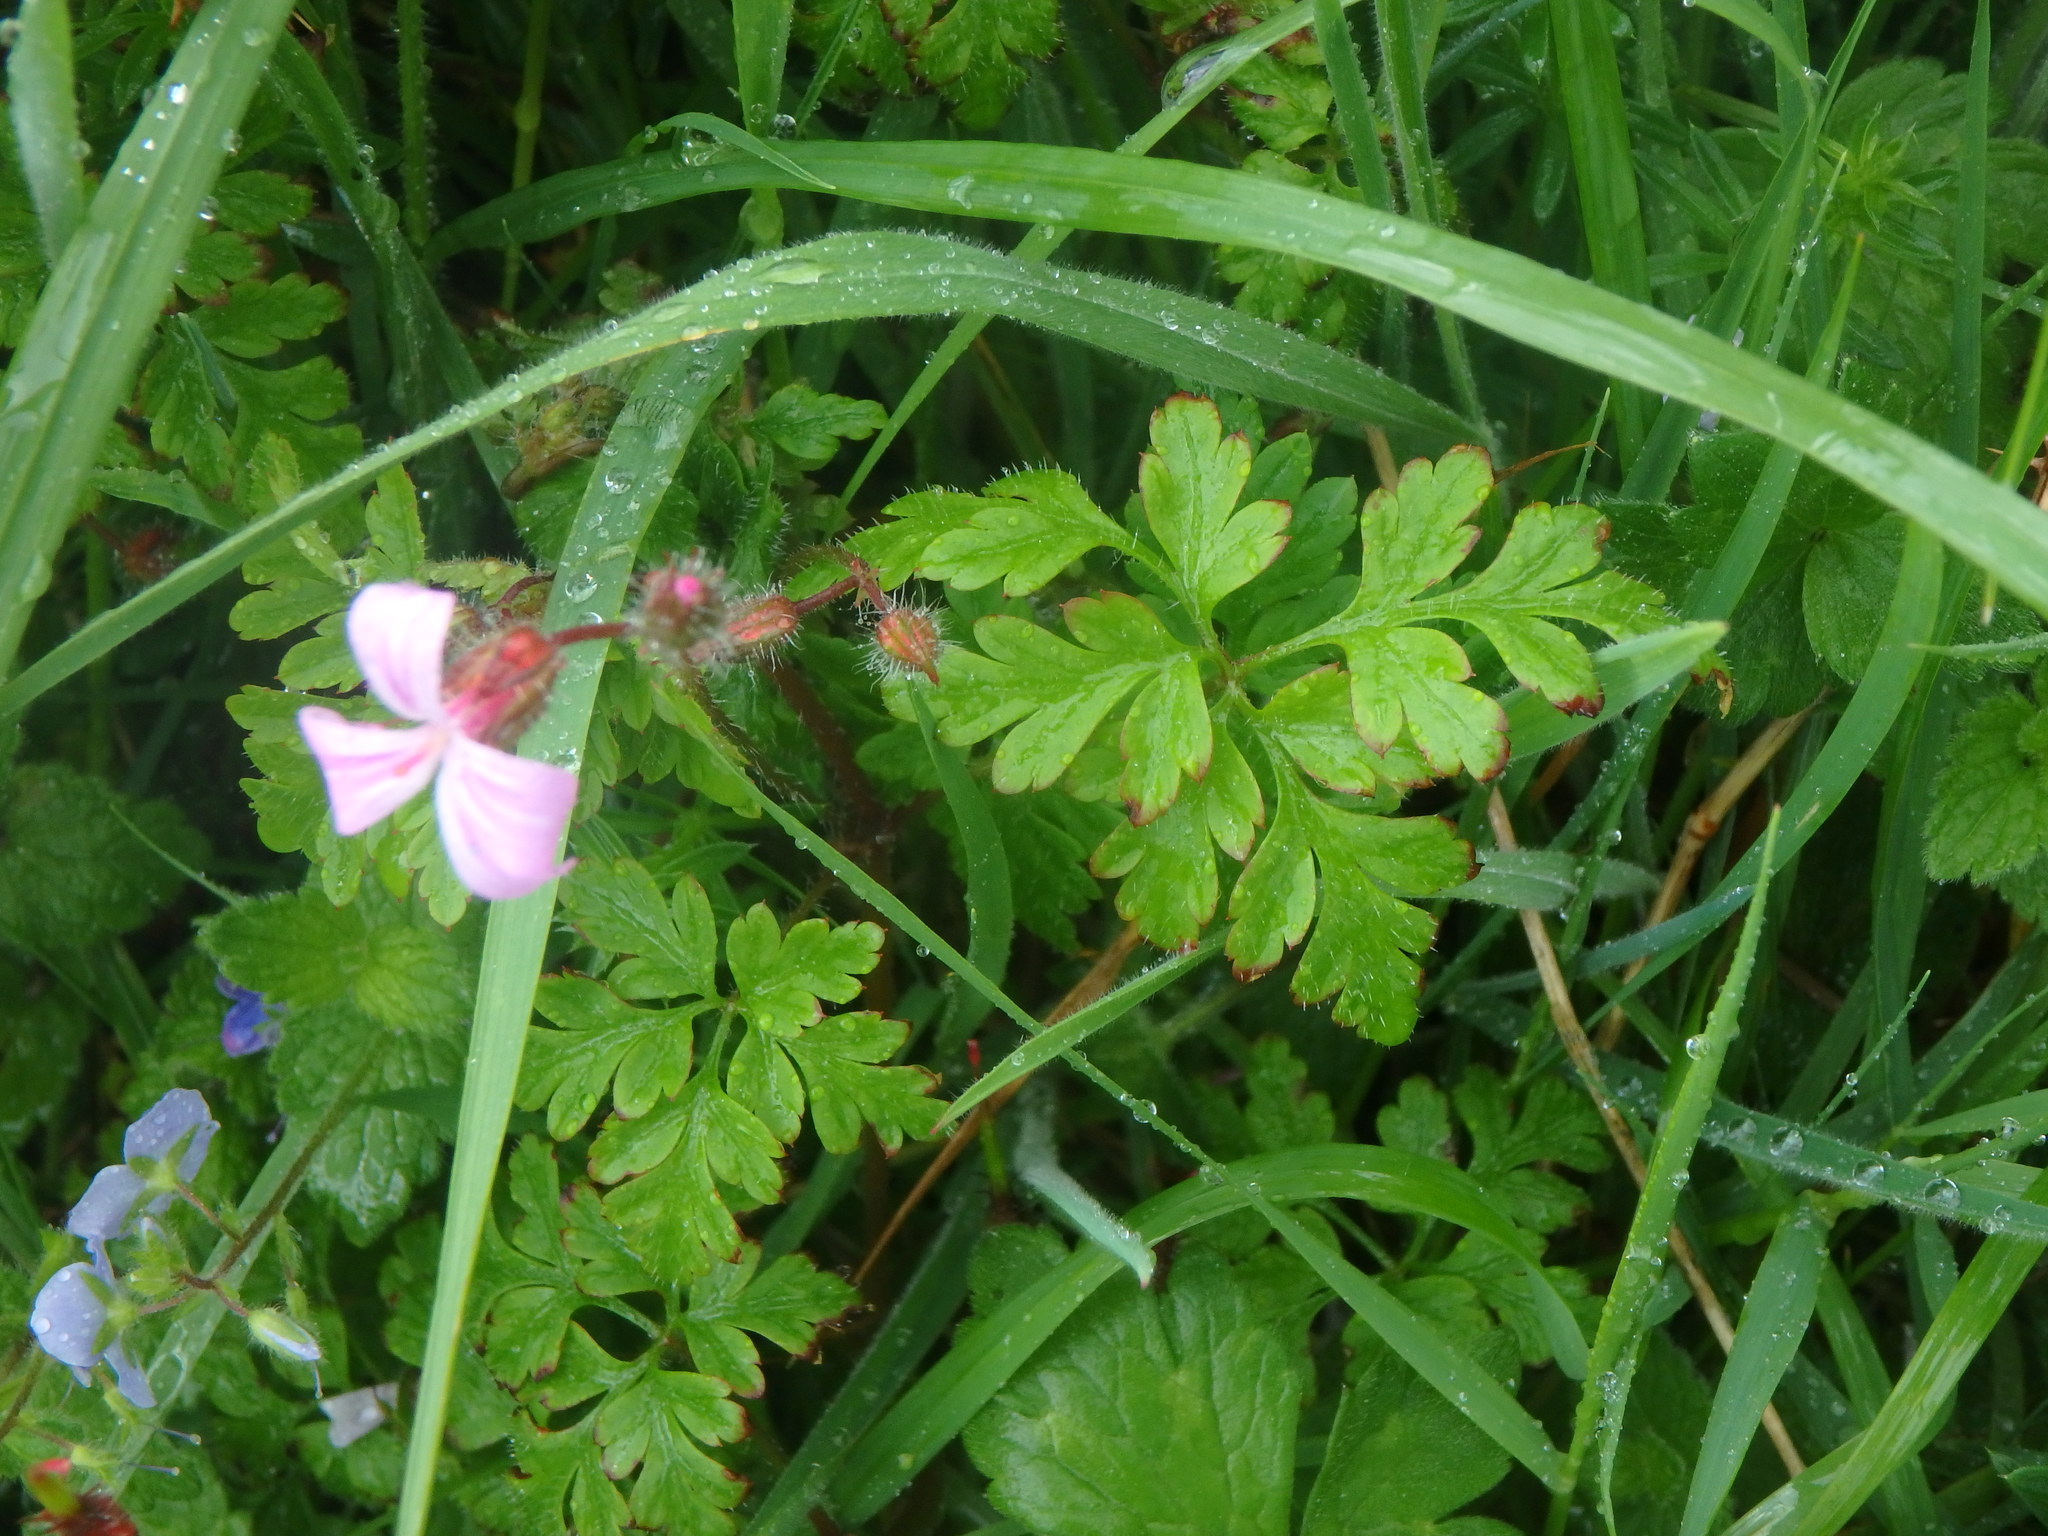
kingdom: Plantae
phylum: Tracheophyta
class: Magnoliopsida
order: Geraniales
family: Geraniaceae
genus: Geranium
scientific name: Geranium robertianum
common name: Herb-robert
